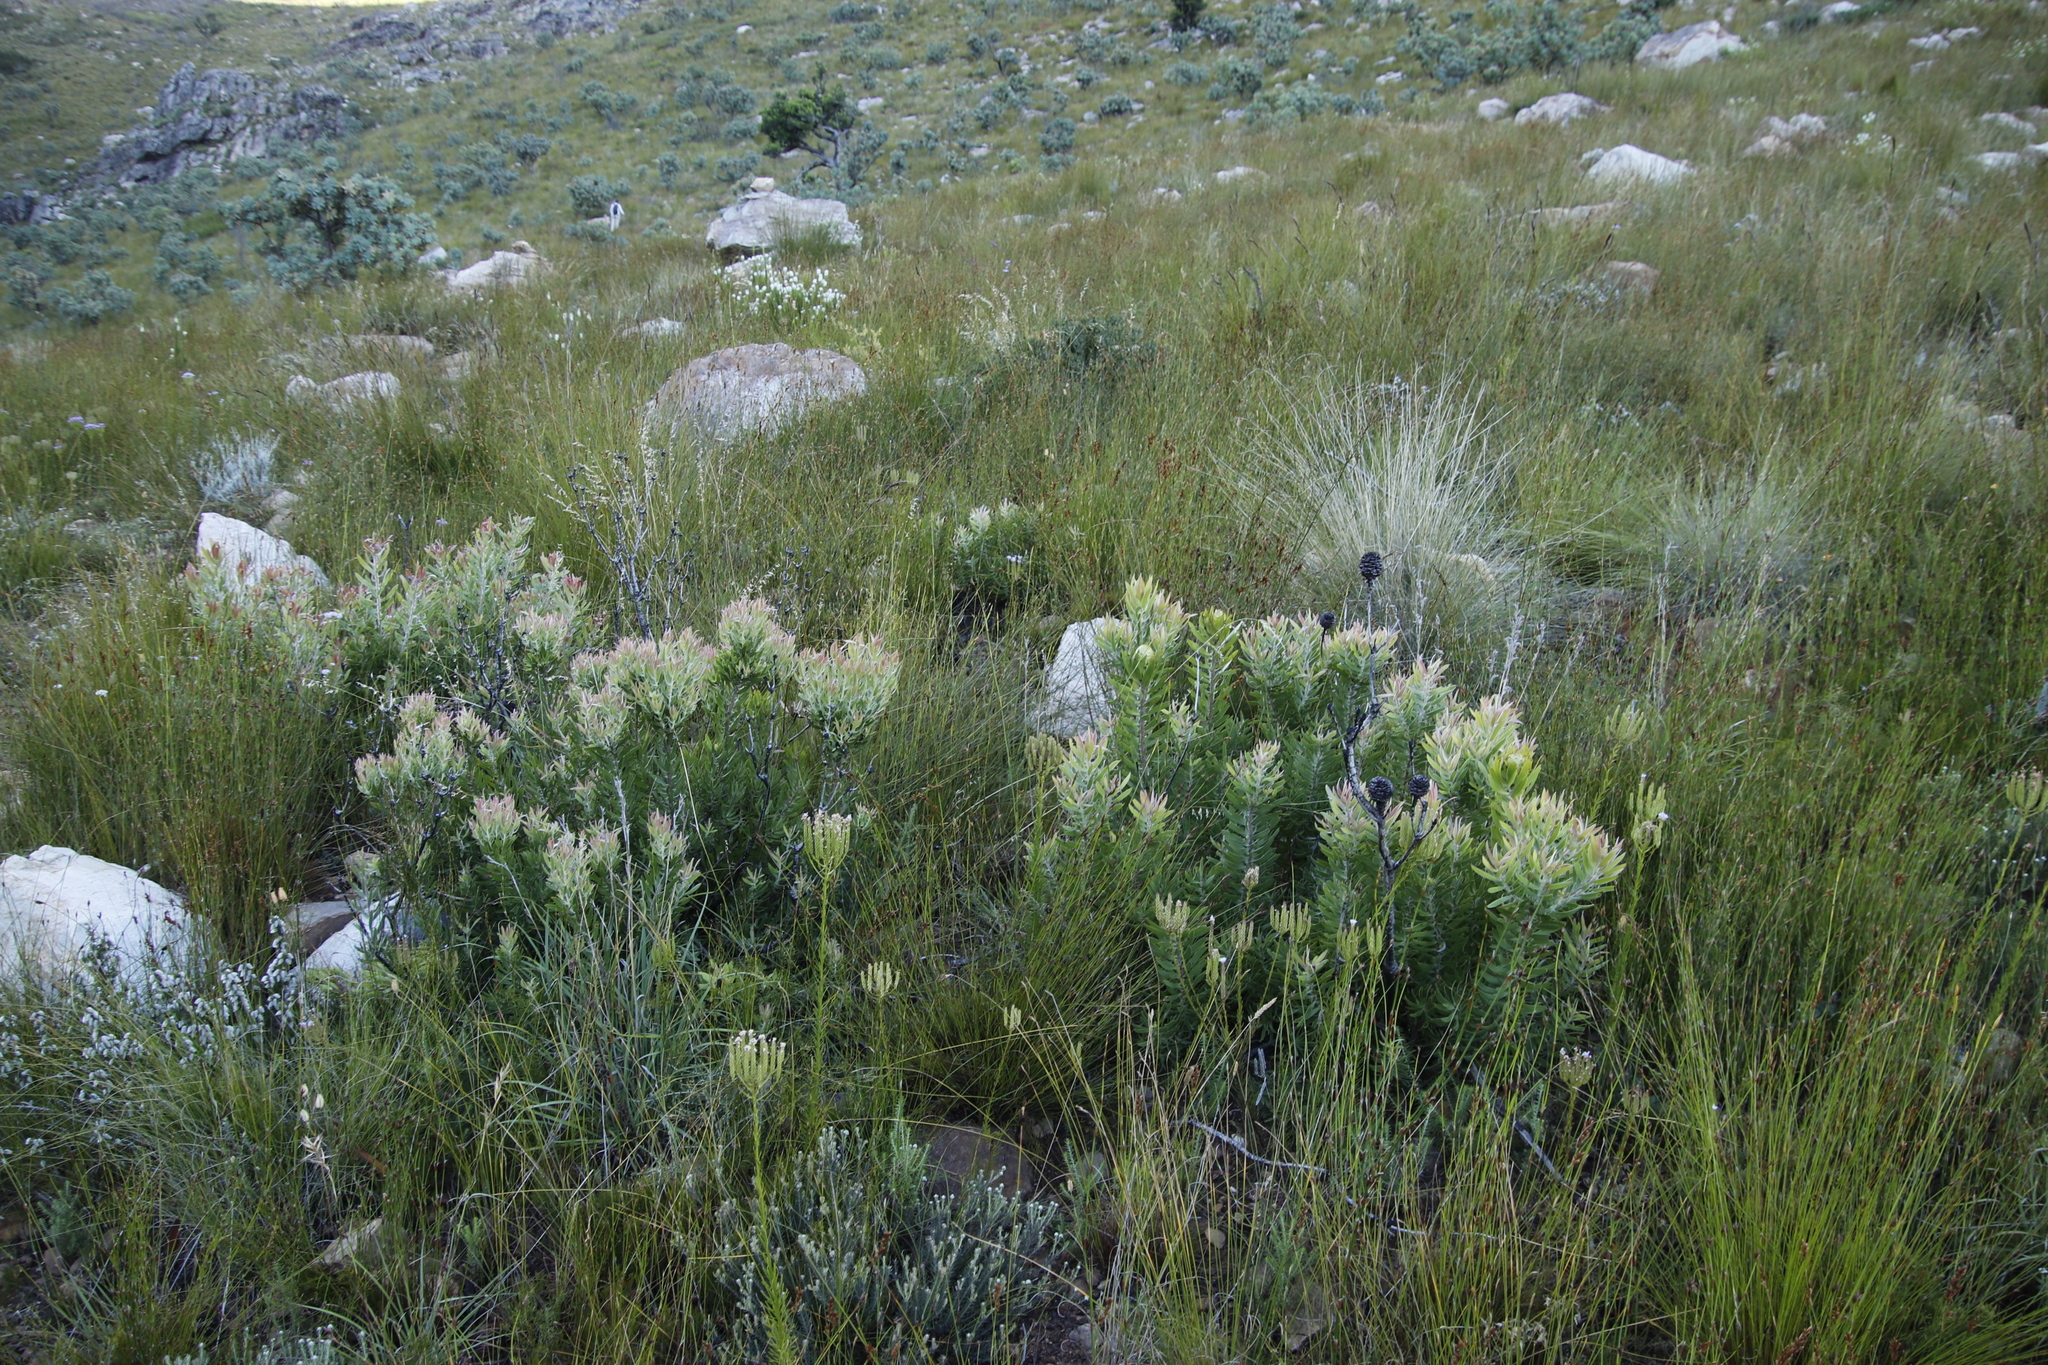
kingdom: Plantae
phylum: Tracheophyta
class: Magnoliopsida
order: Proteales
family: Proteaceae
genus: Leucadendron
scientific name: Leucadendron spissifolium
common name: Spear-leaf conebush
